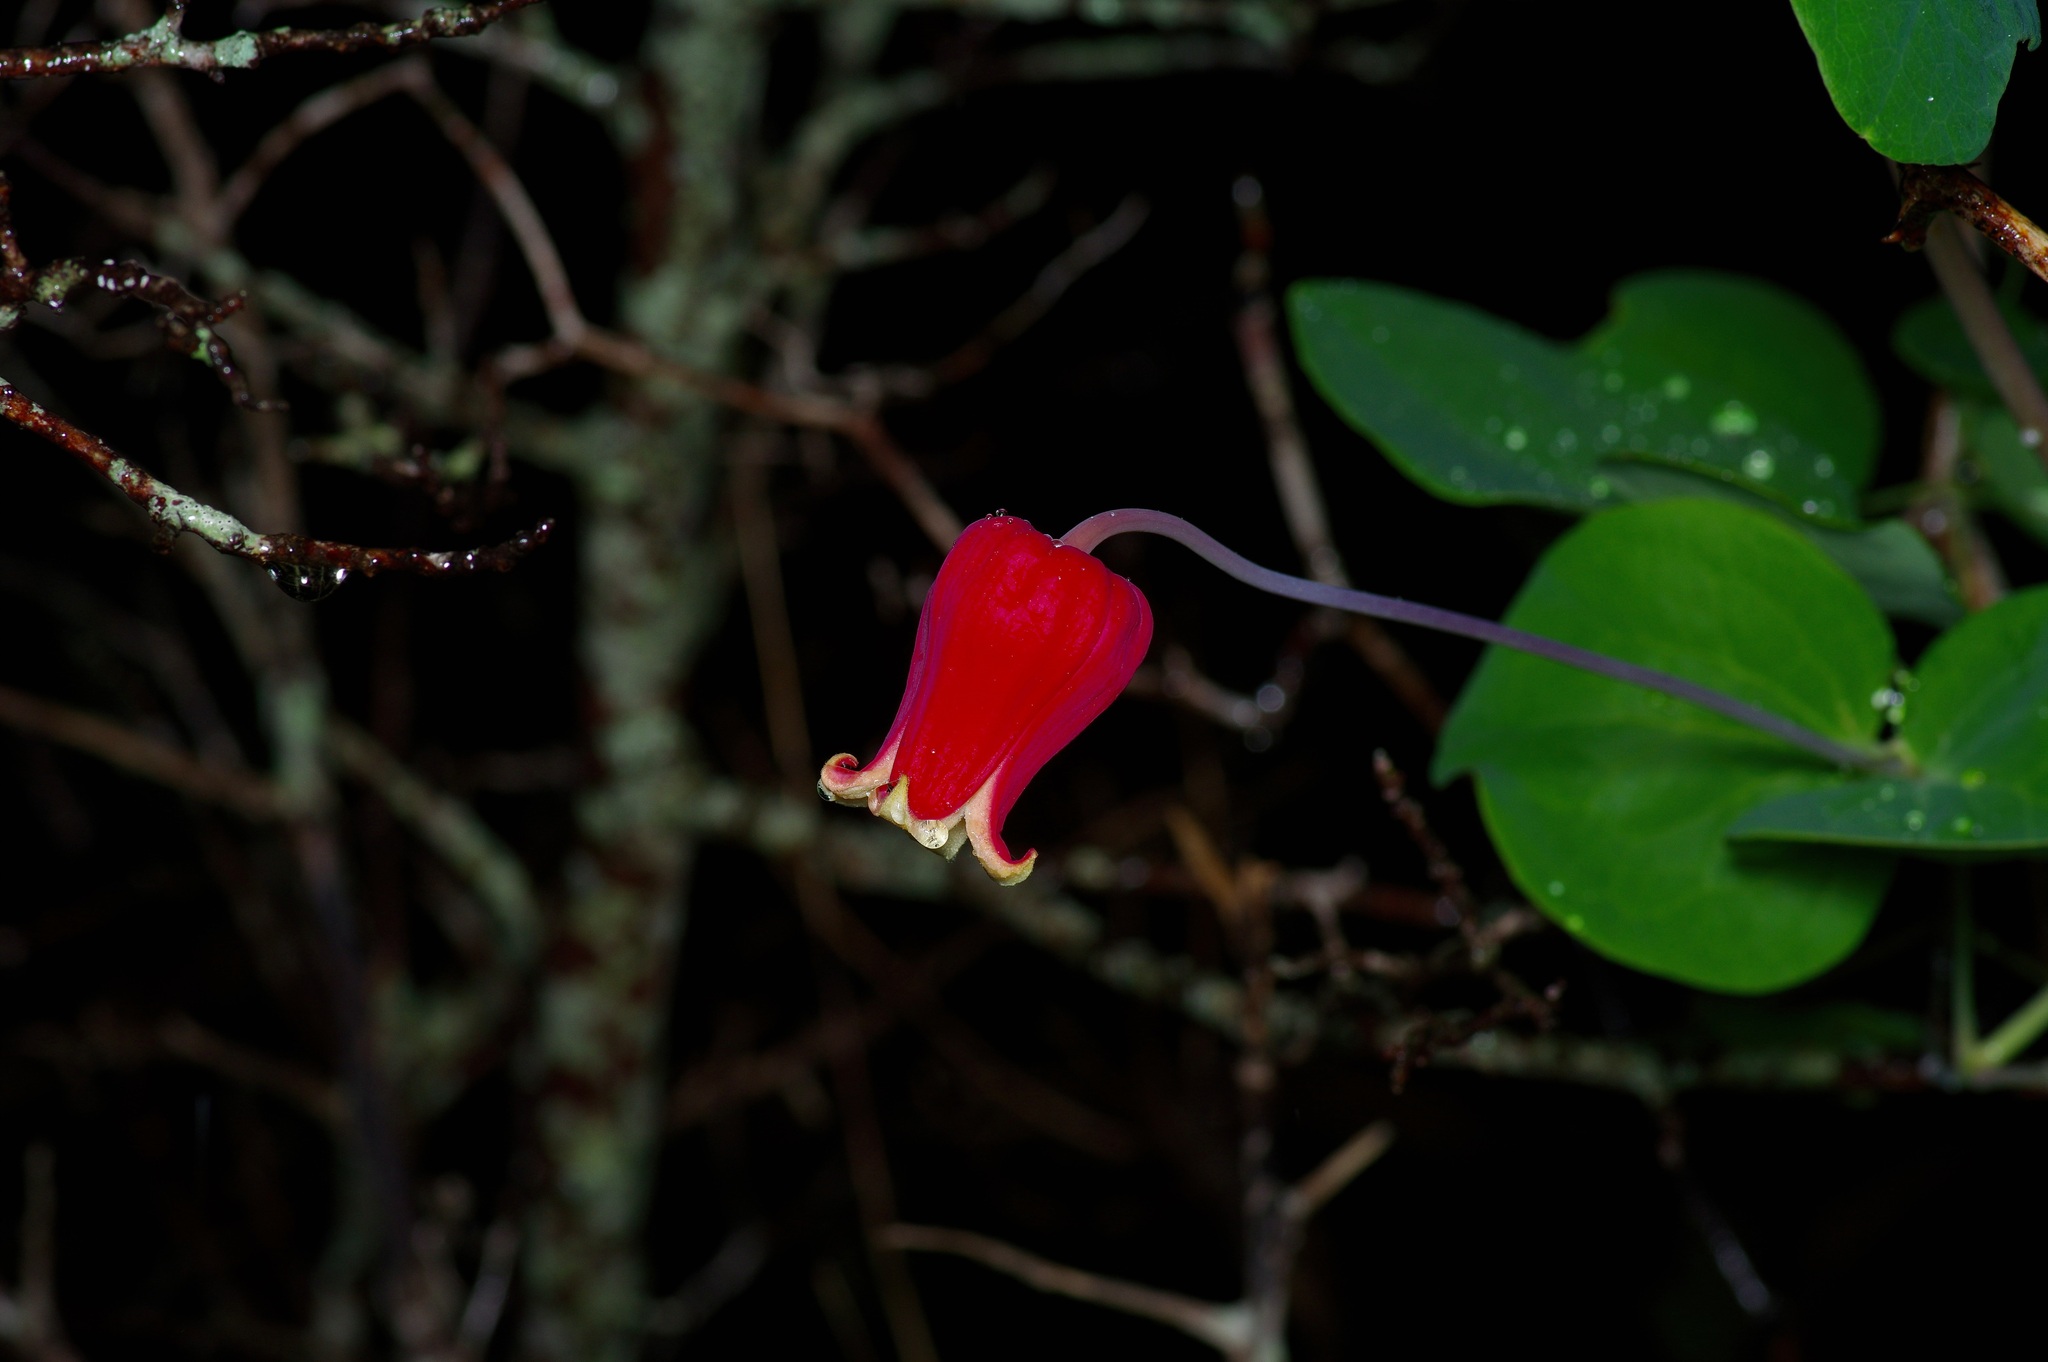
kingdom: Plantae
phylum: Tracheophyta
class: Magnoliopsida
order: Ranunculales
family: Ranunculaceae
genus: Clematis
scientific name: Clematis texensis
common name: Crimson clematis
